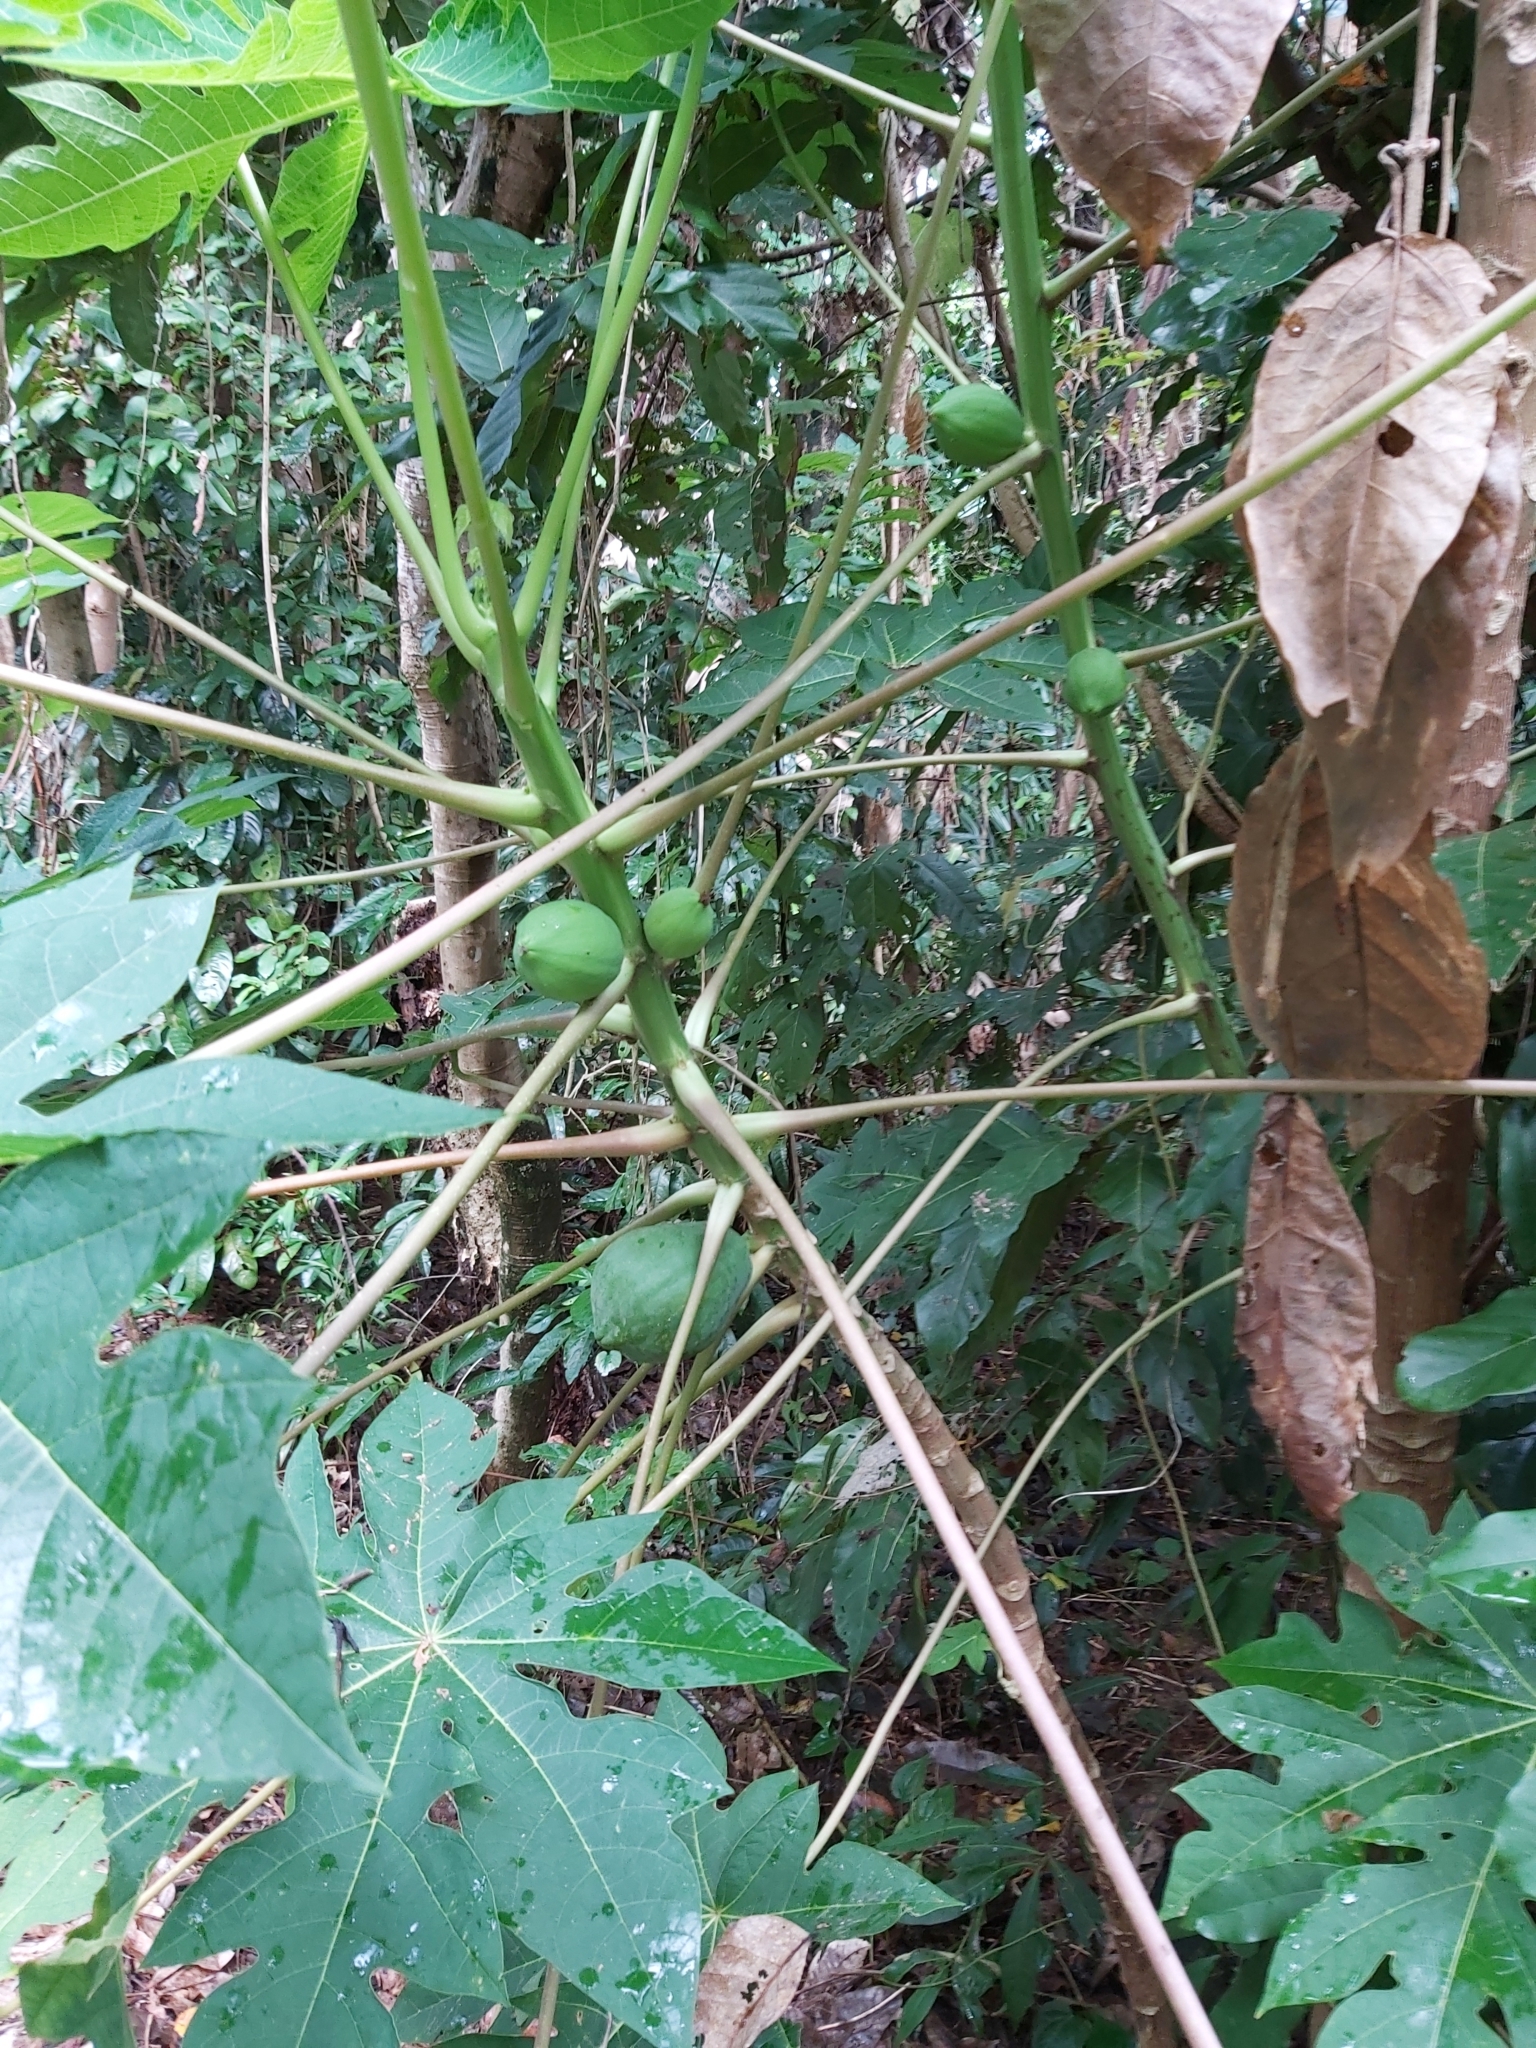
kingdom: Plantae
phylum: Tracheophyta
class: Magnoliopsida
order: Brassicales
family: Caricaceae
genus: Carica
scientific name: Carica papaya
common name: Papaya
